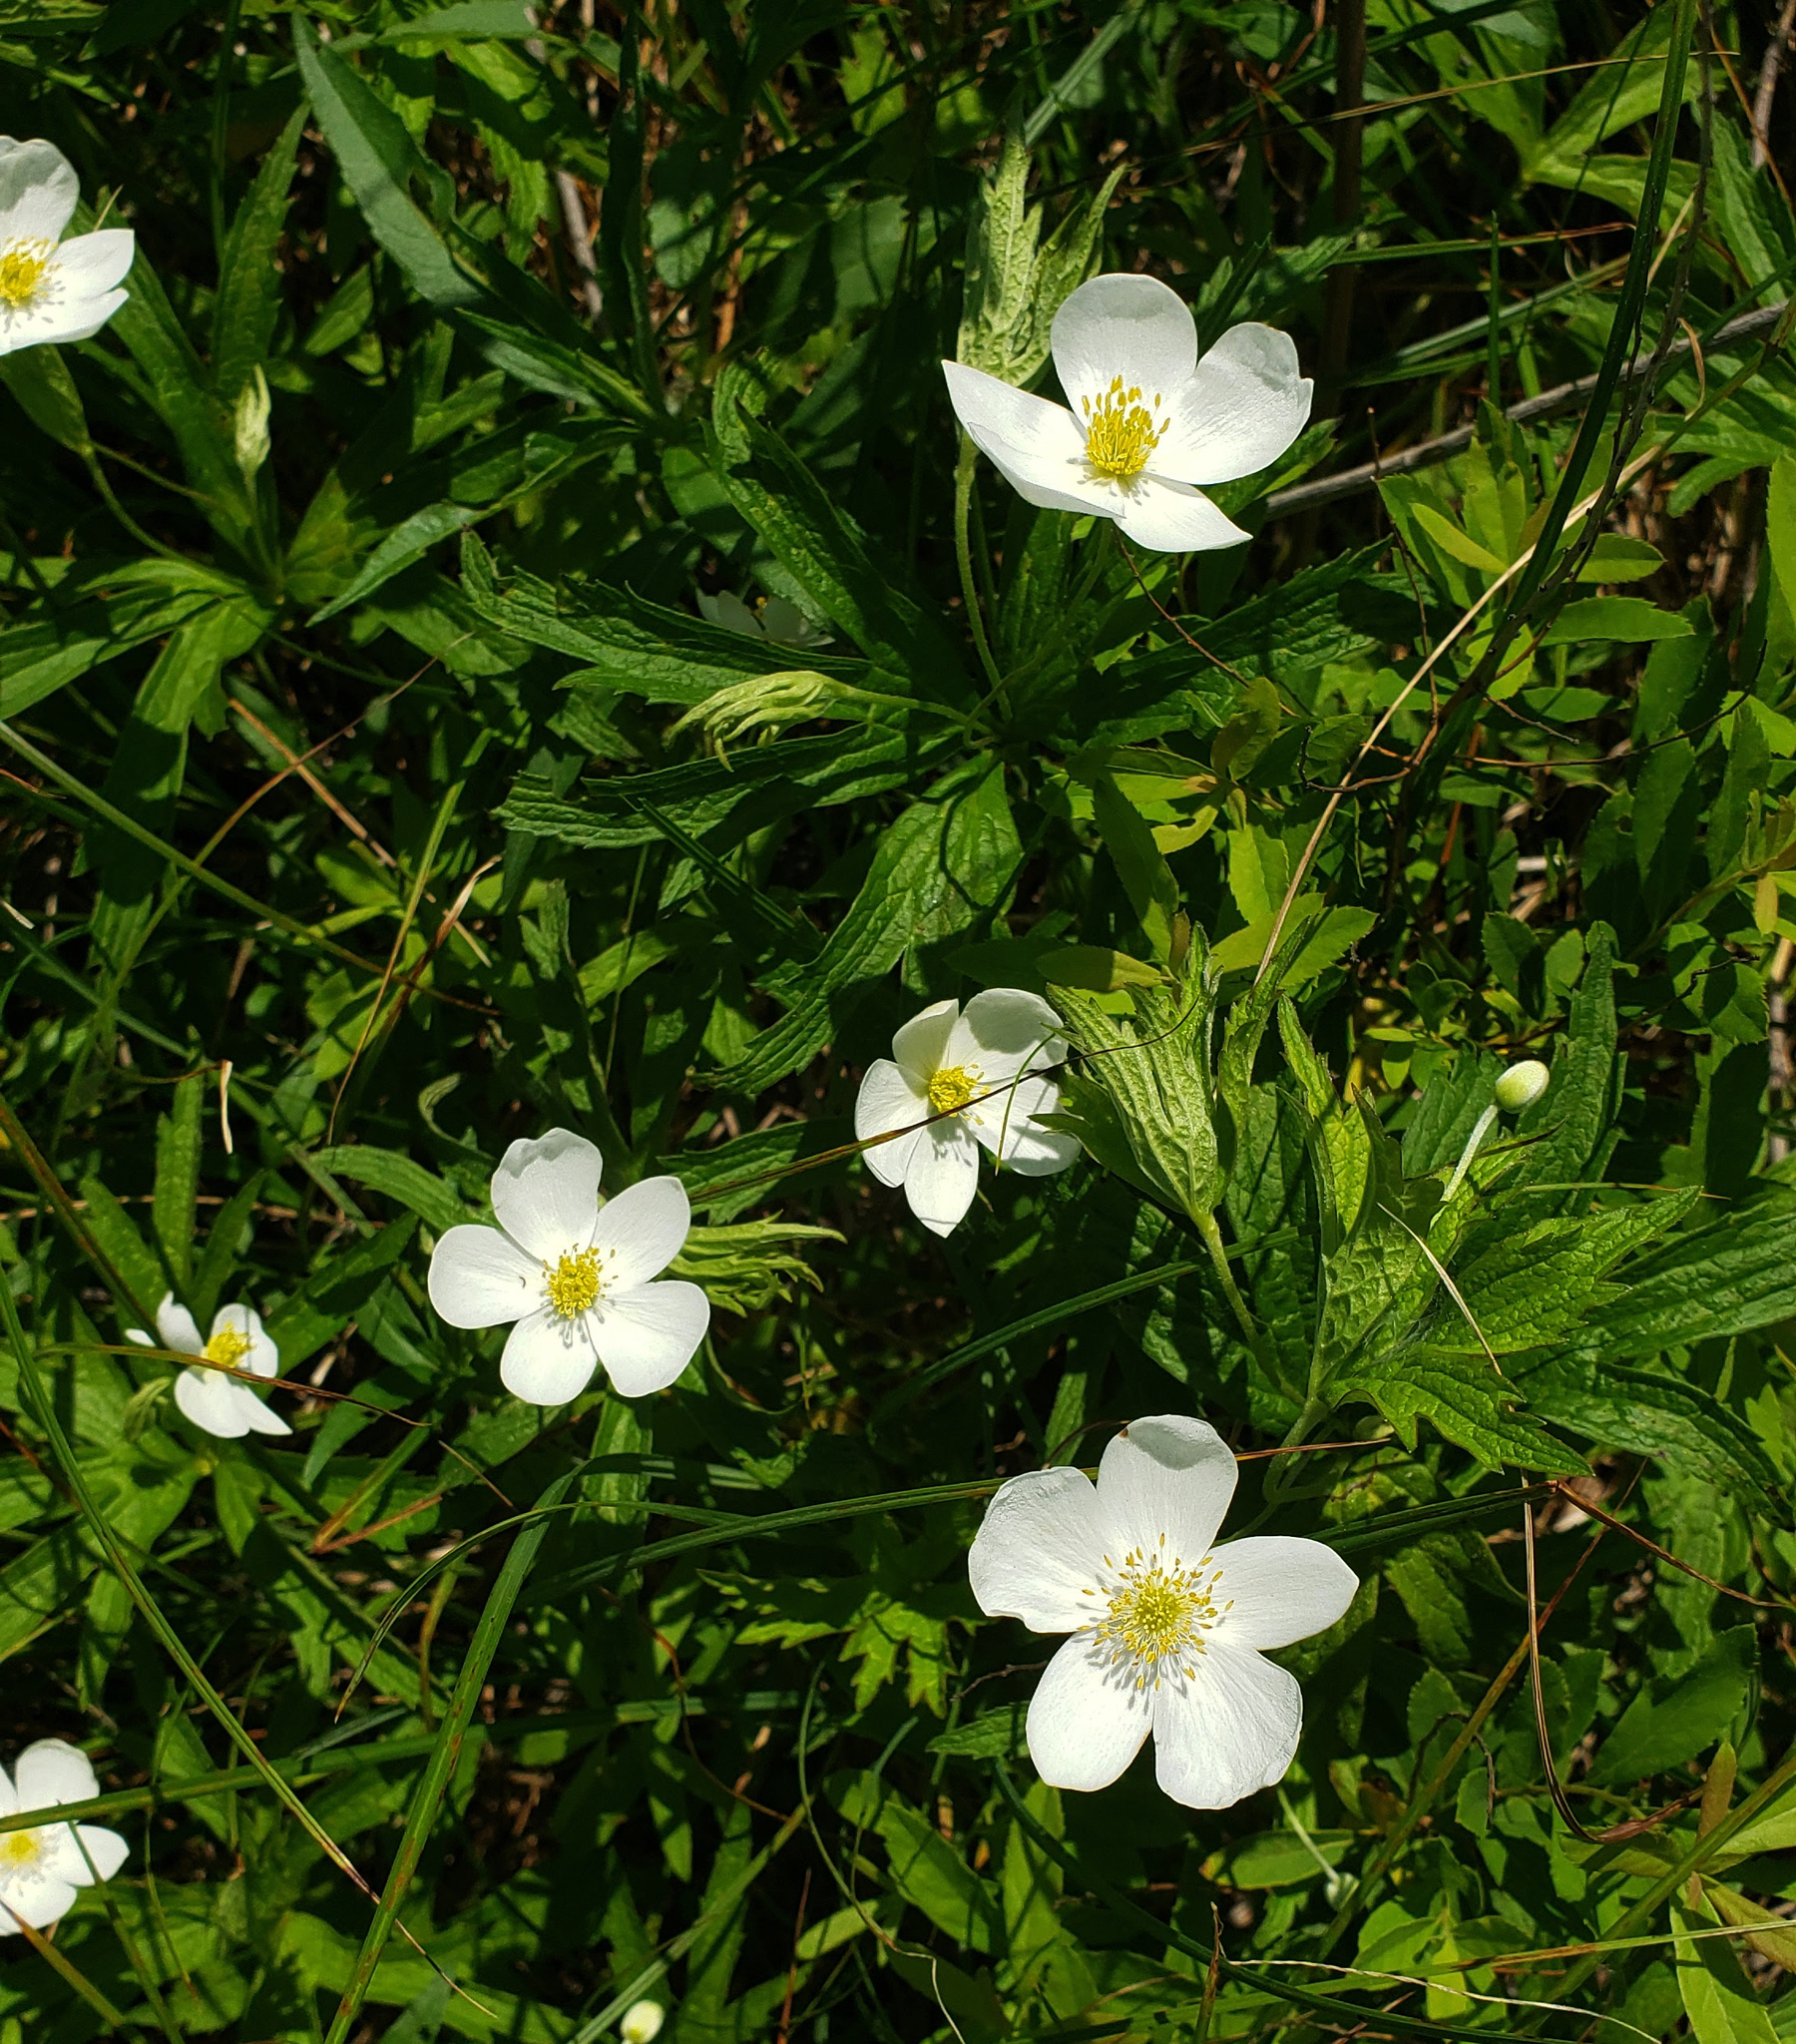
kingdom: Plantae
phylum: Tracheophyta
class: Magnoliopsida
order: Ranunculales
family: Ranunculaceae
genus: Anemonastrum
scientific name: Anemonastrum canadense
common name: Canada anemone
